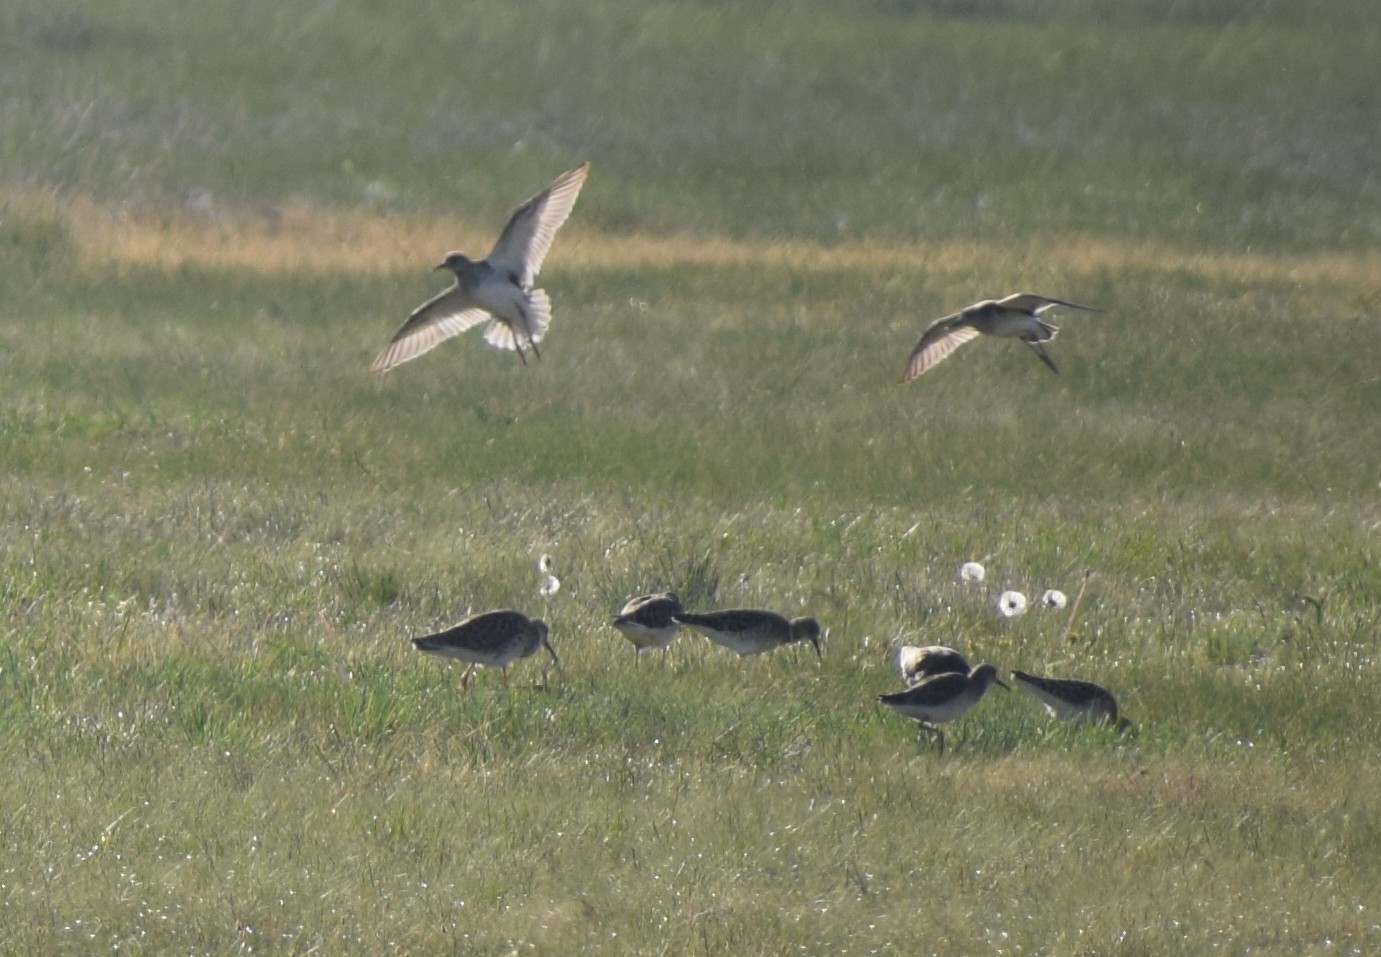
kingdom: Animalia
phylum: Chordata
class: Aves
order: Charadriiformes
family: Scolopacidae
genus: Calidris
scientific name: Calidris pugnax
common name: Ruff
